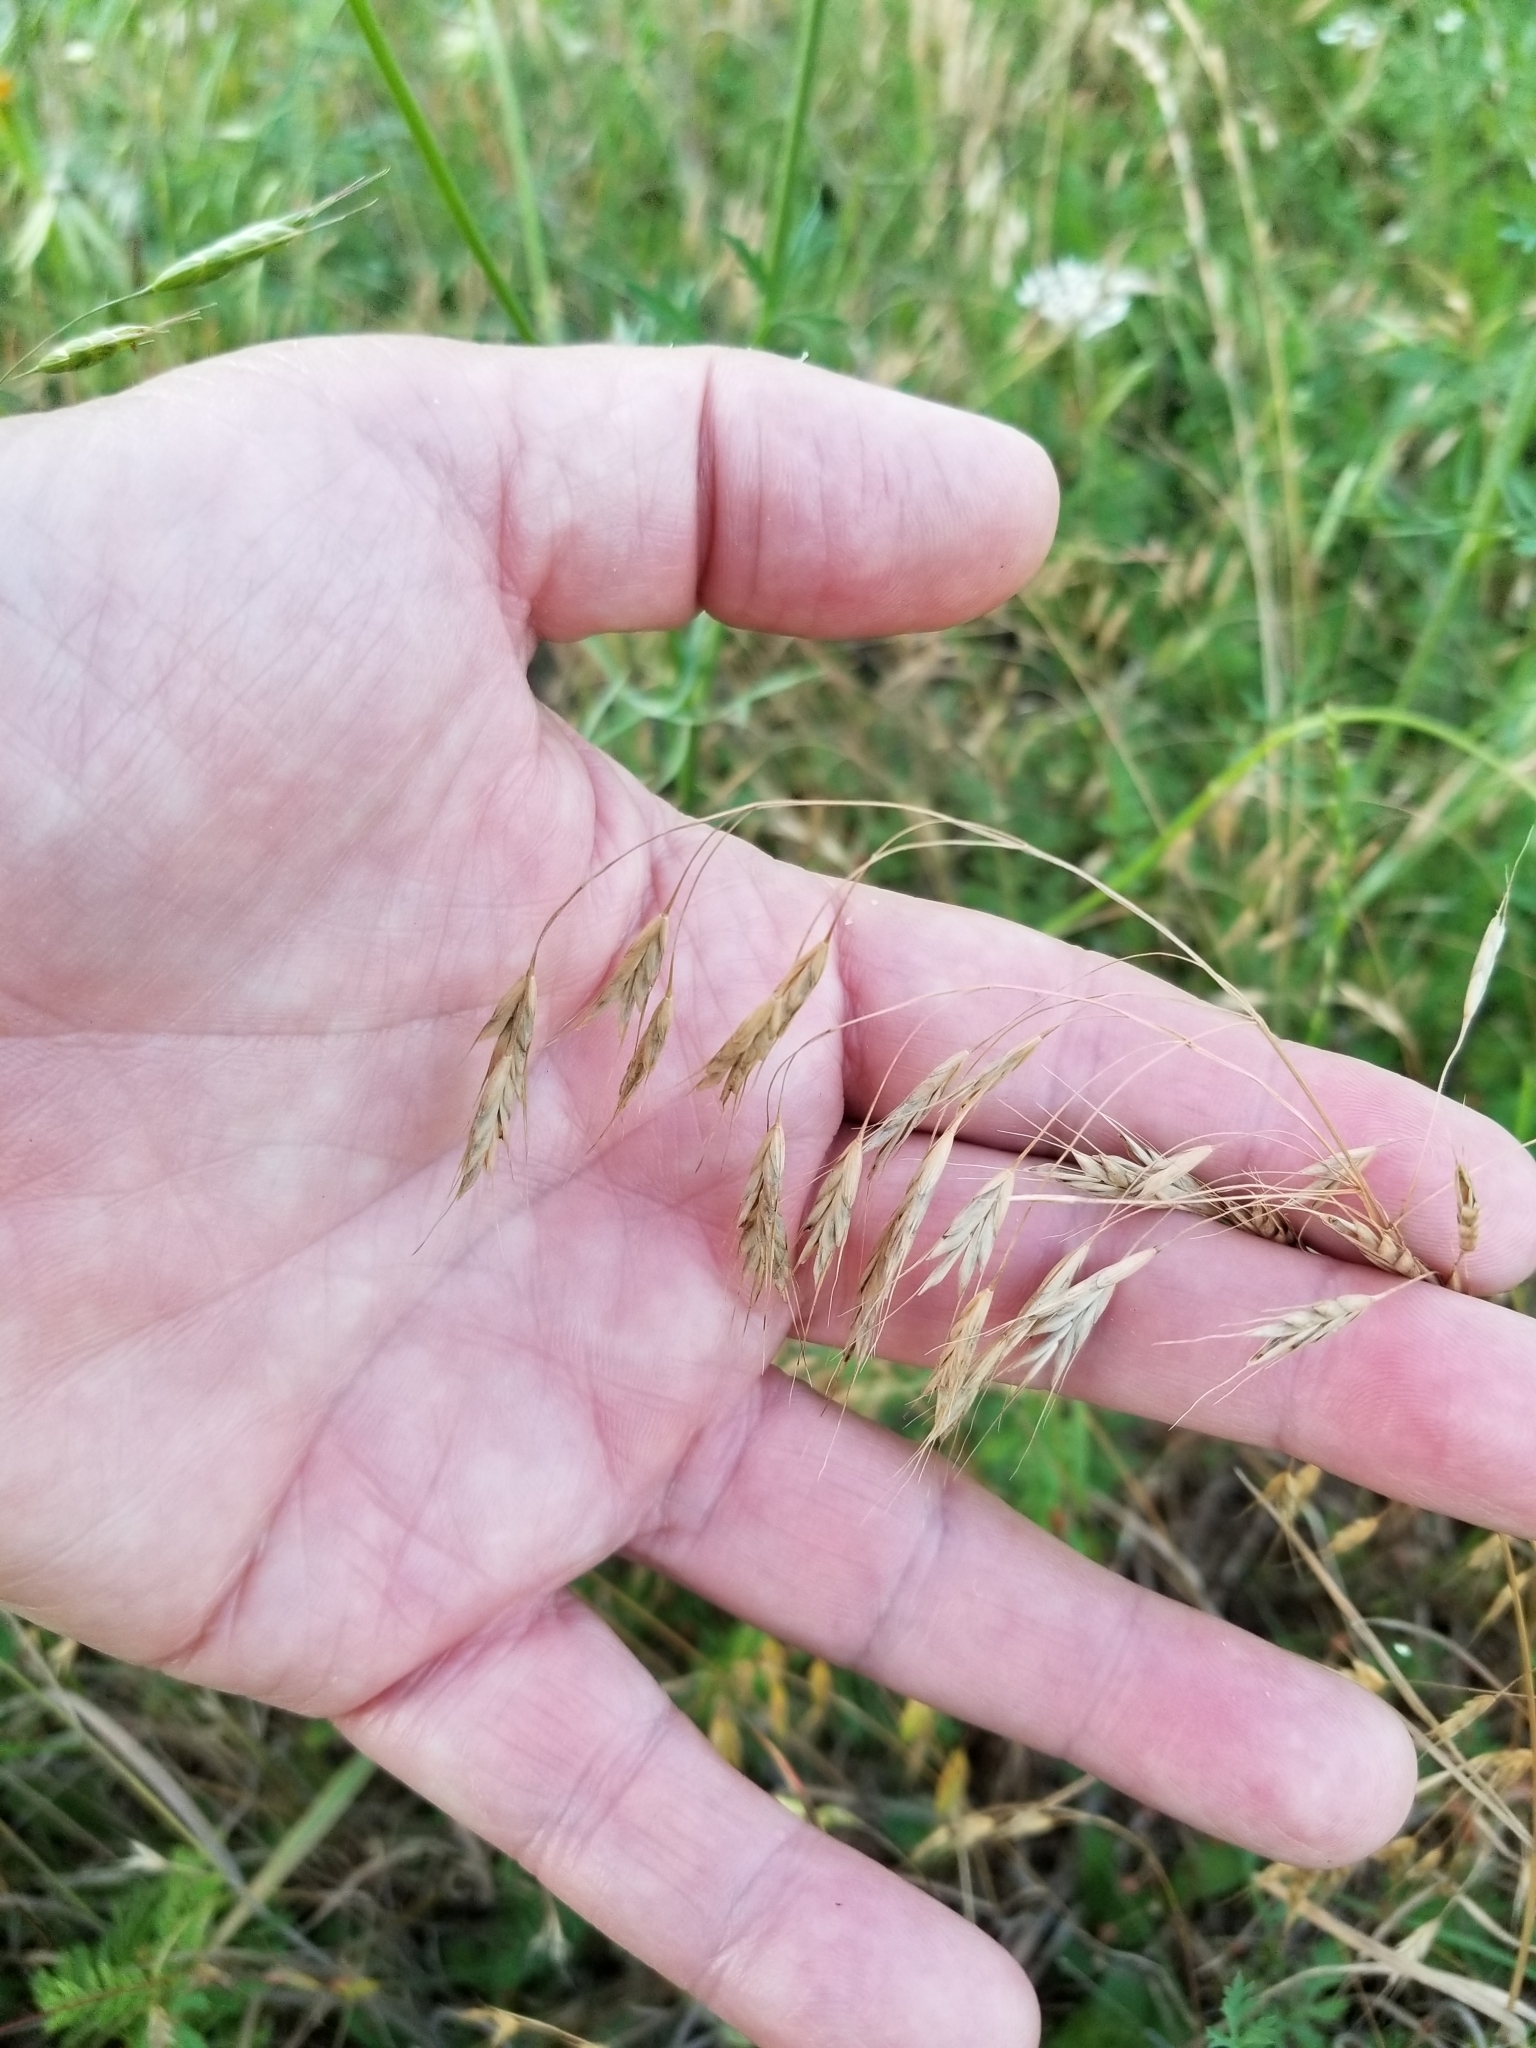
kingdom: Plantae
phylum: Tracheophyta
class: Liliopsida
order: Poales
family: Poaceae
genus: Bromus
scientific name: Bromus japonicus
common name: Japanese brome
